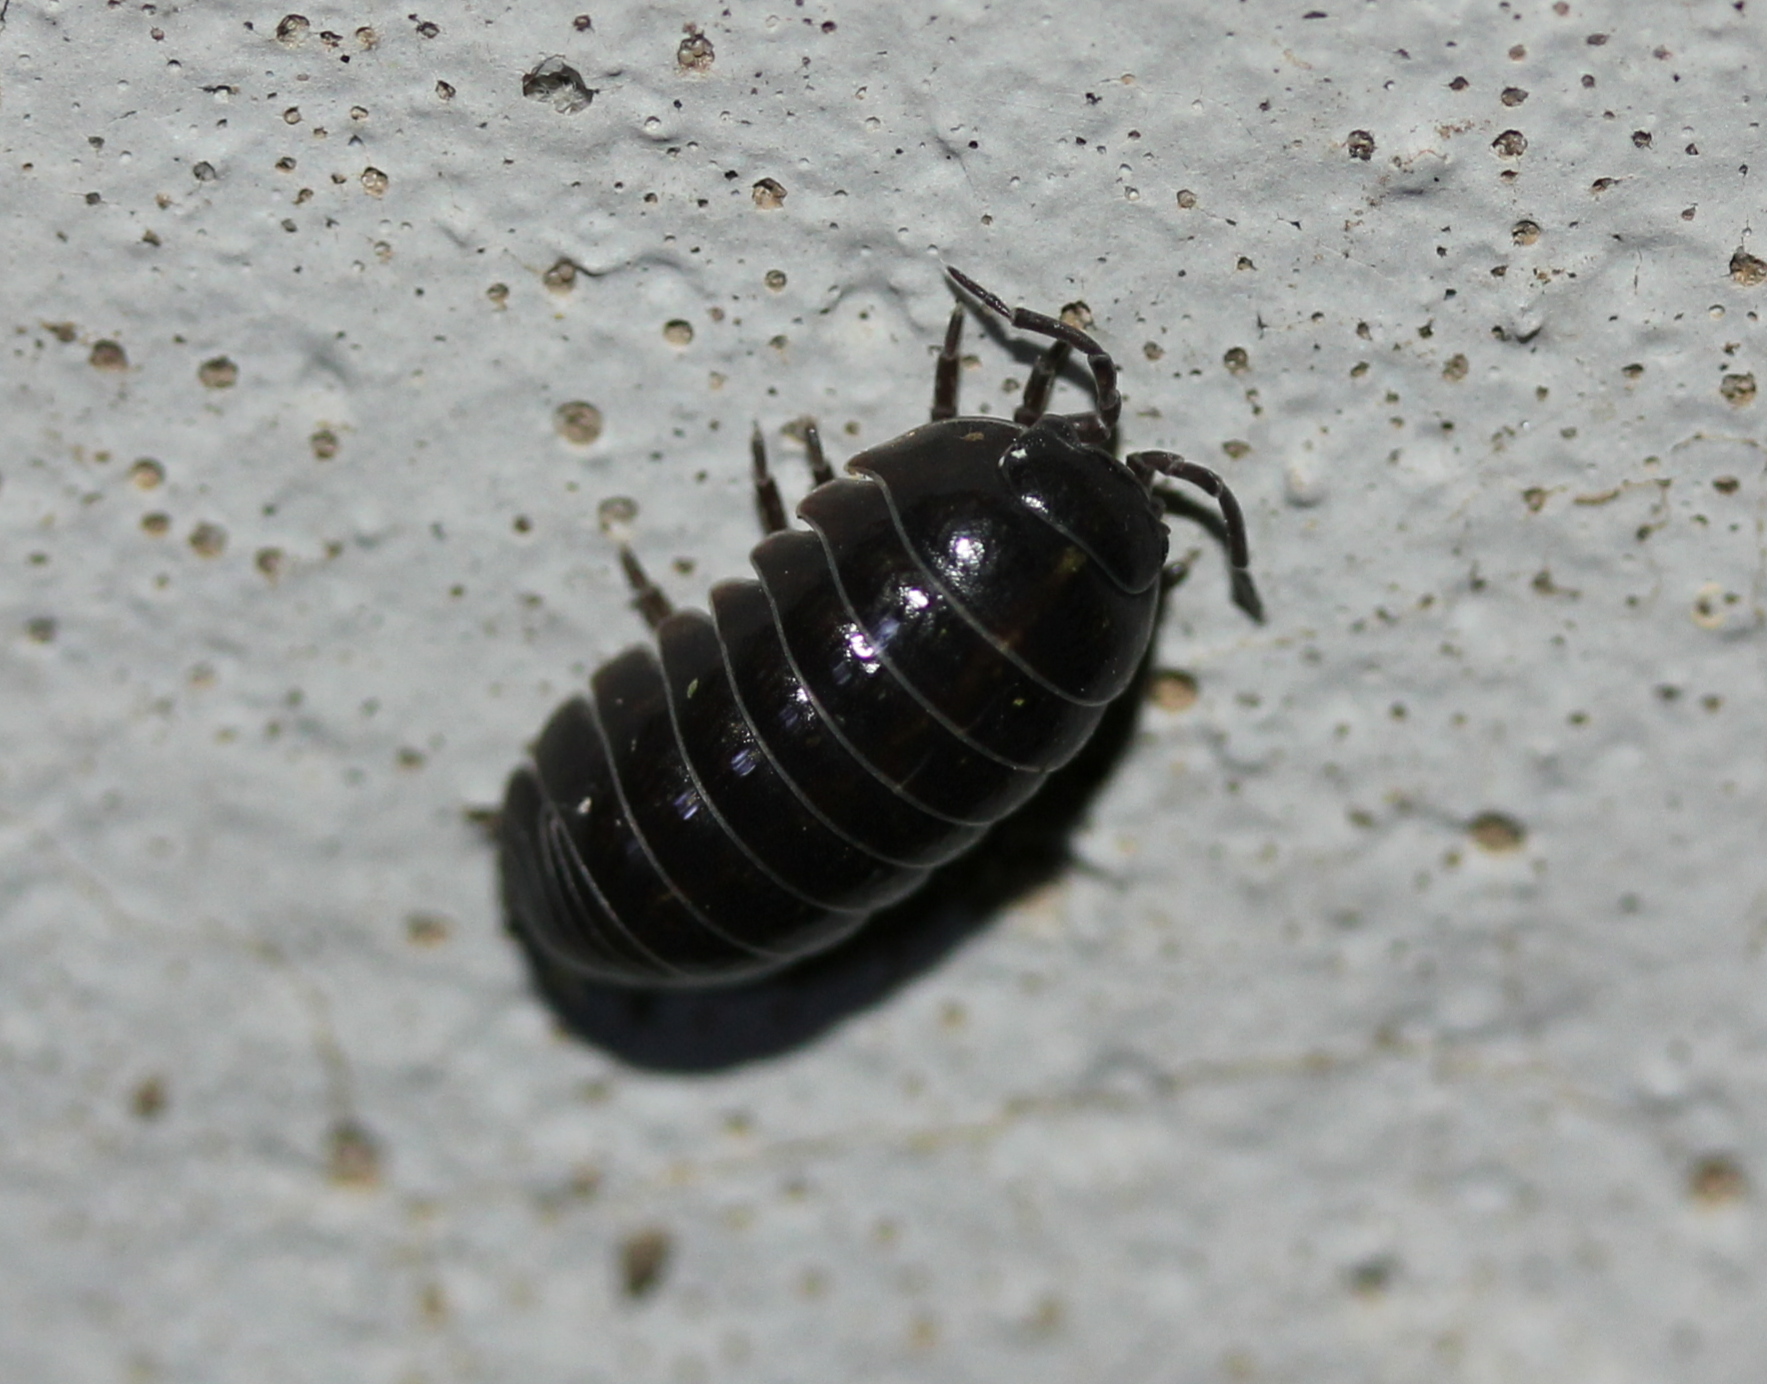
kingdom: Animalia
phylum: Arthropoda
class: Malacostraca
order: Isopoda
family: Armadillidiidae
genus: Armadillidium
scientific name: Armadillidium vulgare
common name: Common pill woodlouse
